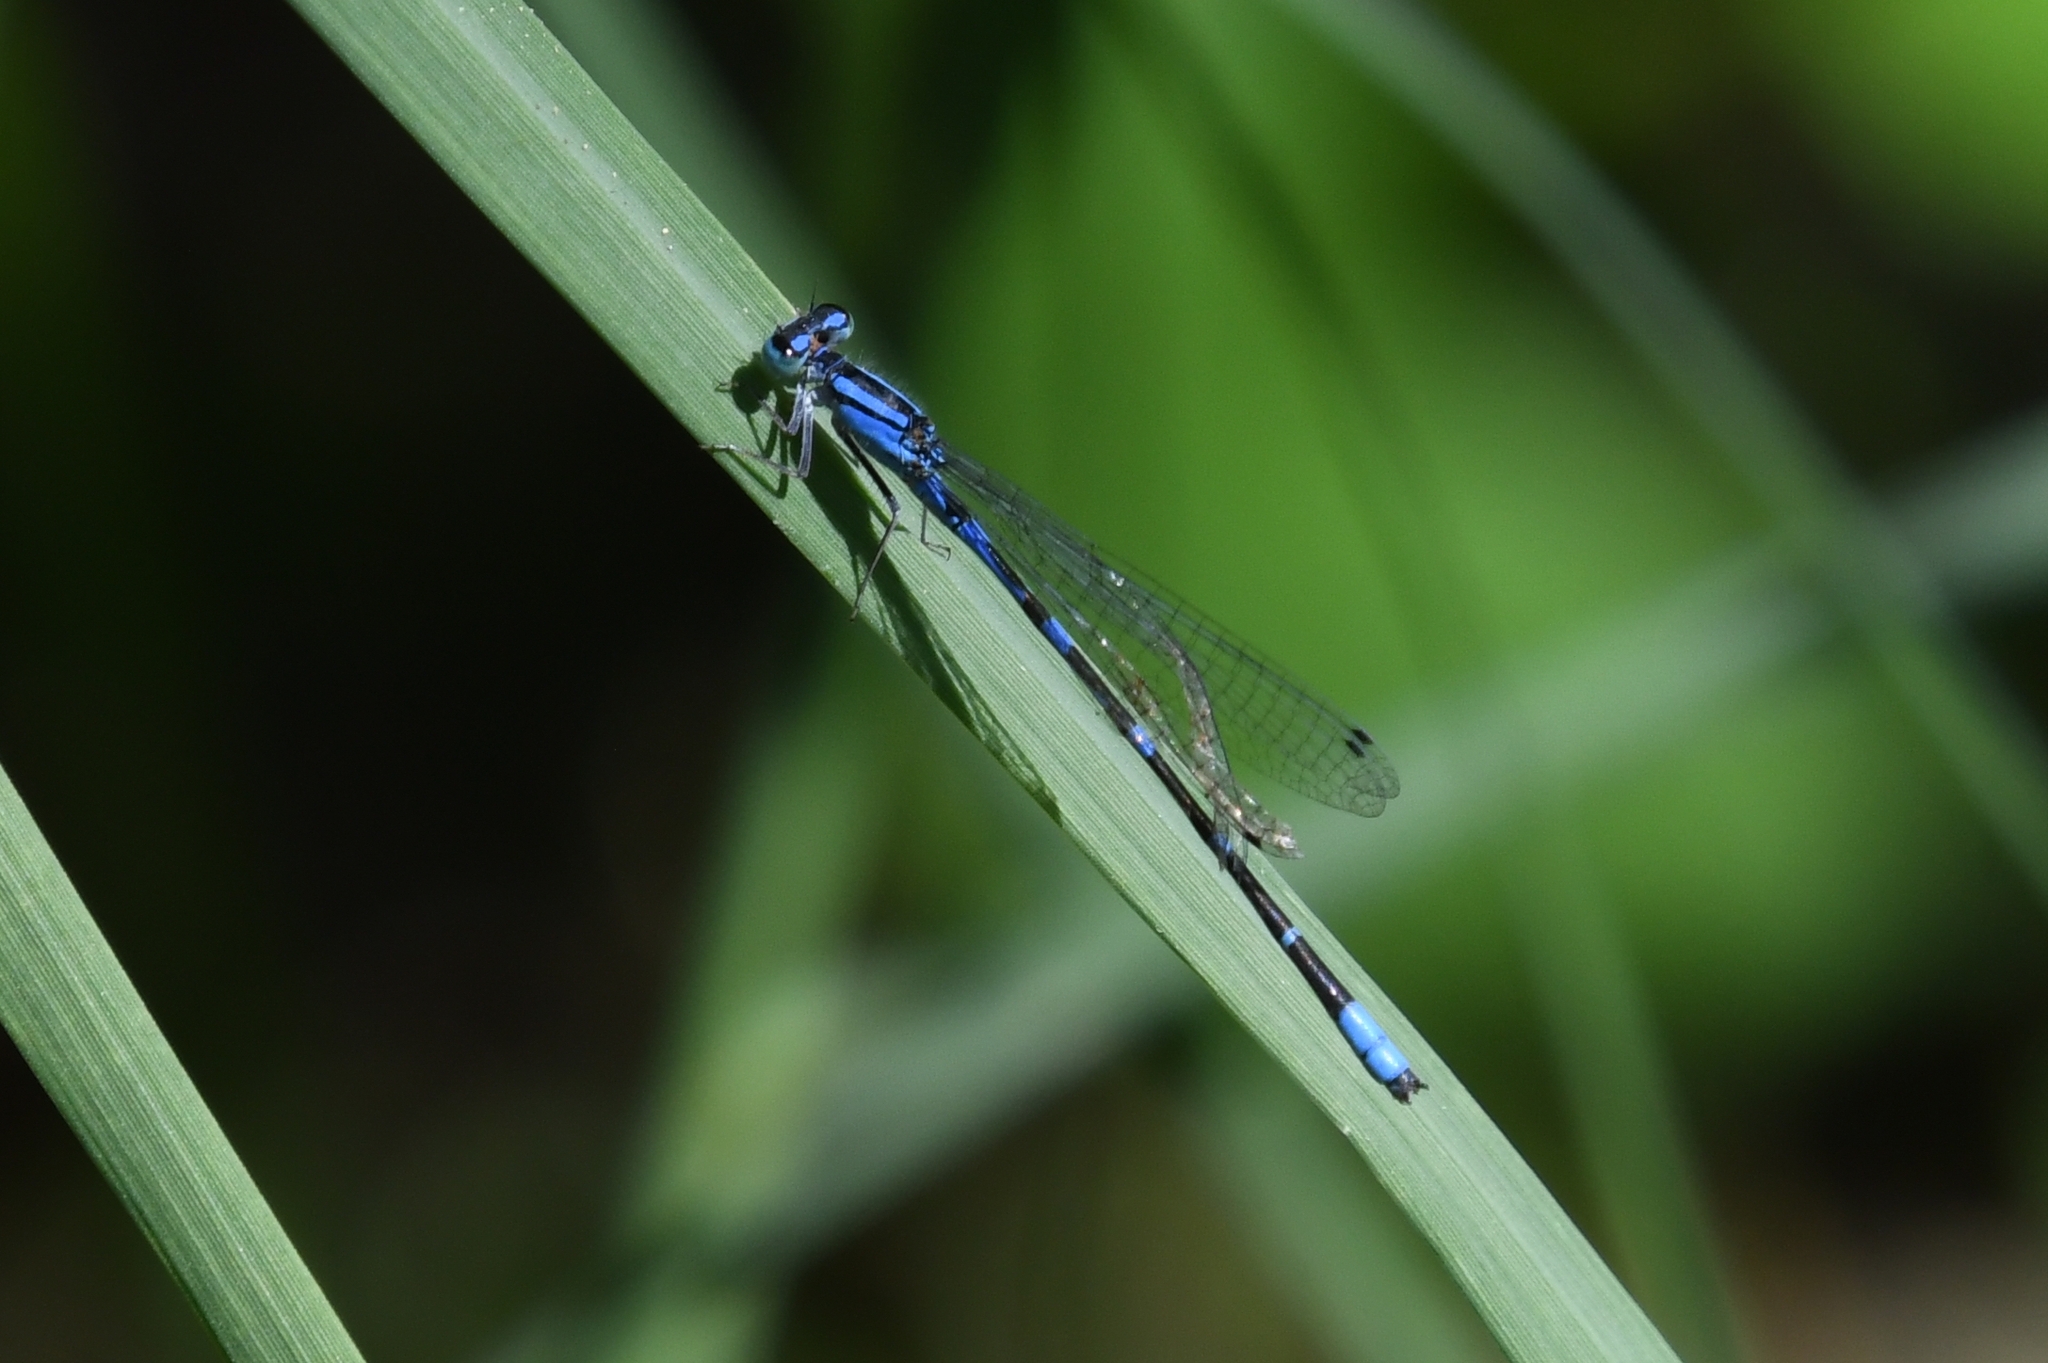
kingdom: Animalia
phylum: Arthropoda
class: Insecta
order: Odonata
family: Coenagrionidae
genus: Enallagma
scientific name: Enallagma praevarum
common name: Arroyo bluet
